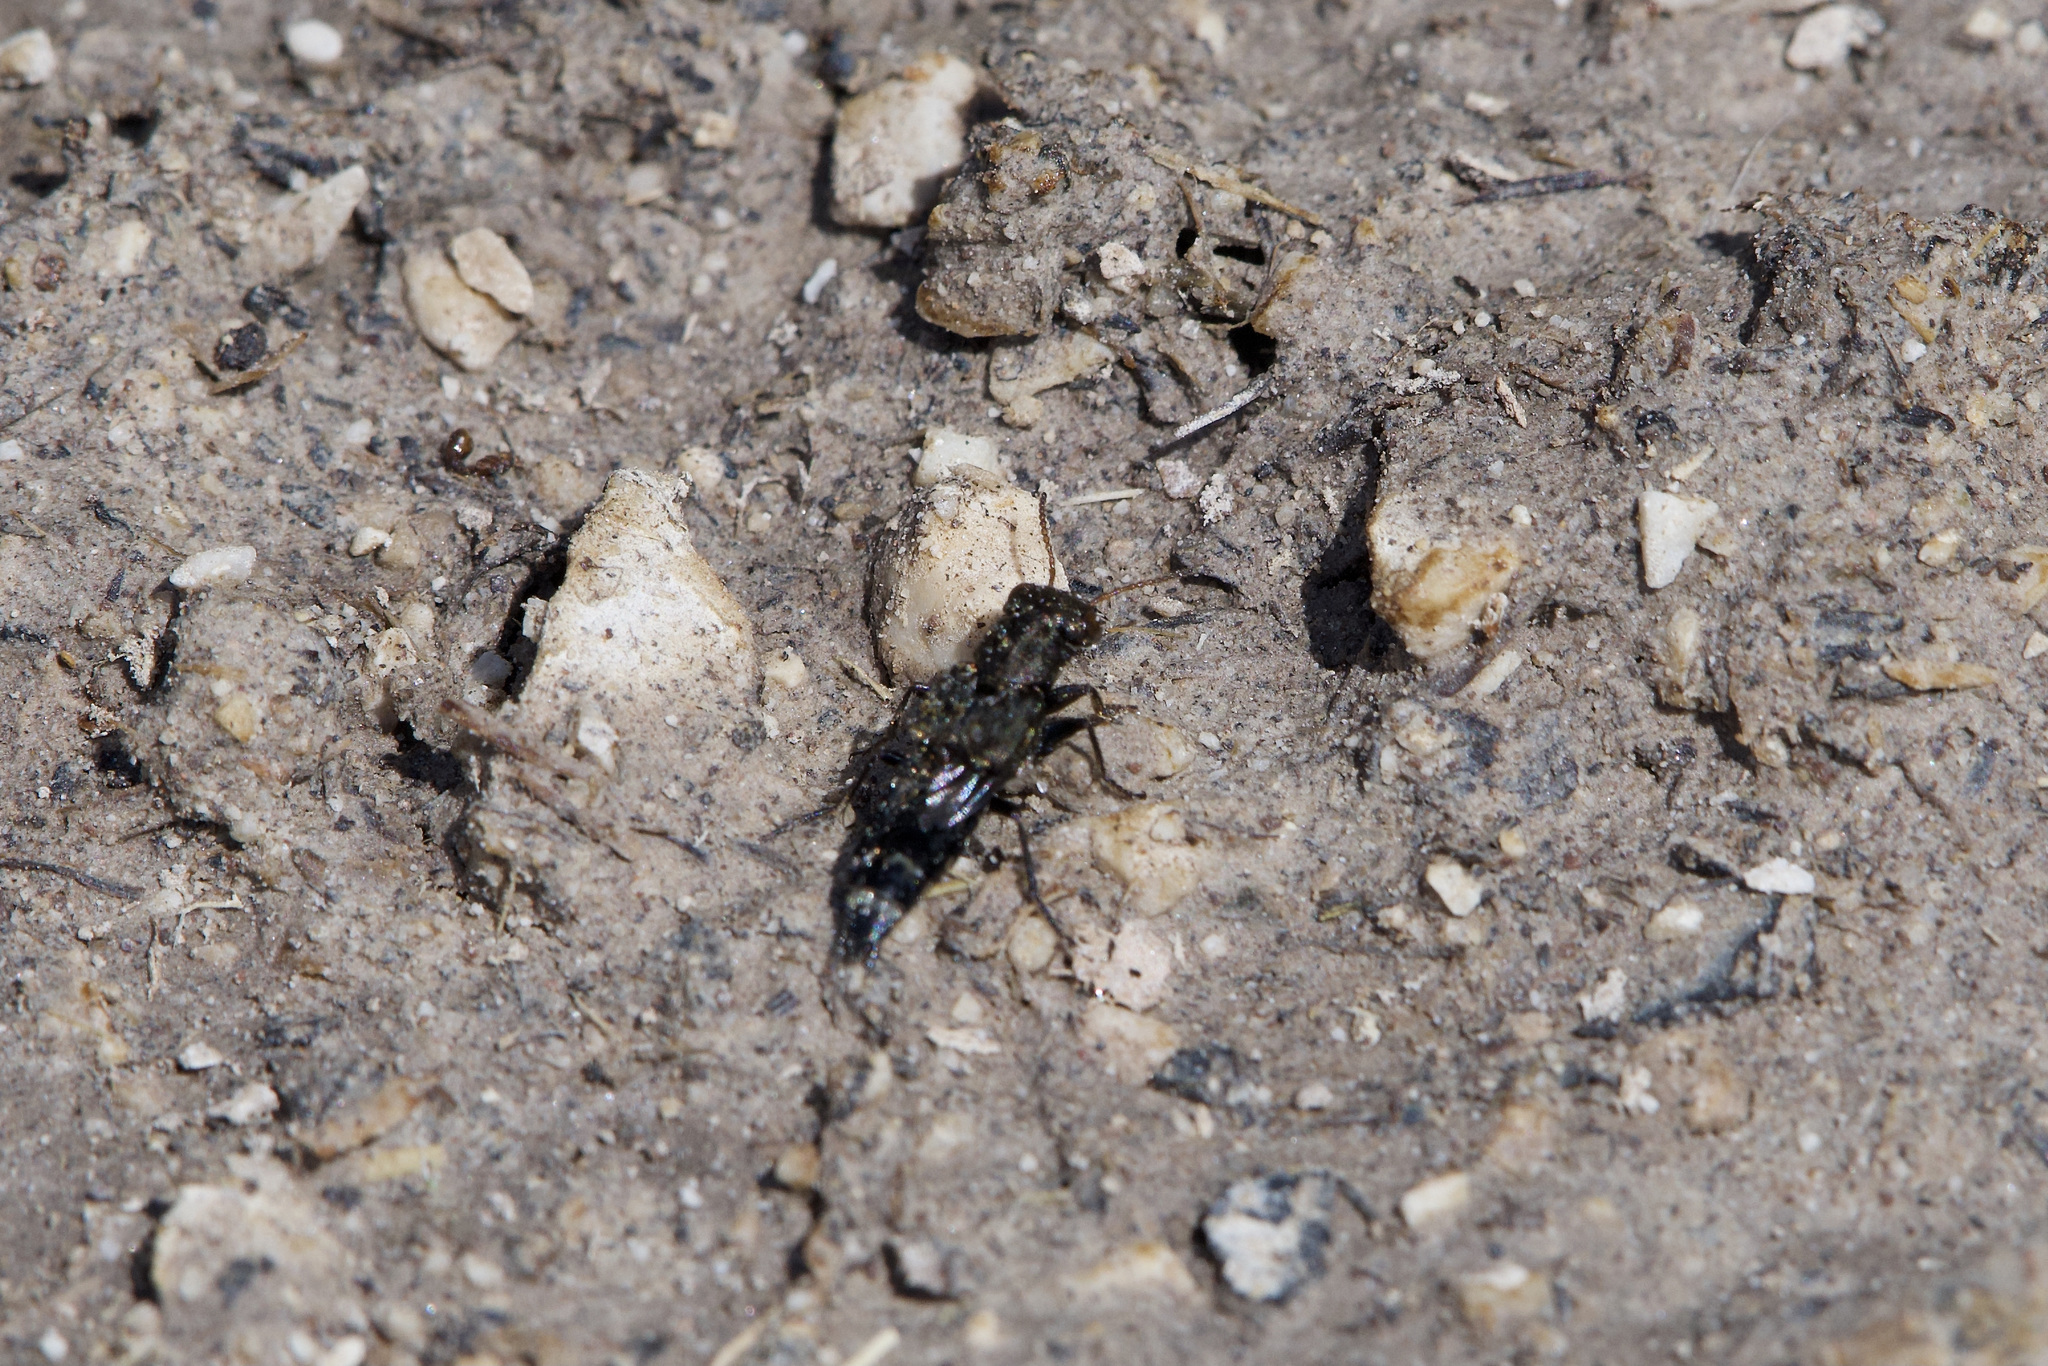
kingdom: Animalia
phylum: Arthropoda
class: Insecta
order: Coleoptera
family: Staphylinidae
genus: Ontholestes
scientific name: Ontholestes murinus
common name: Staph beetle
